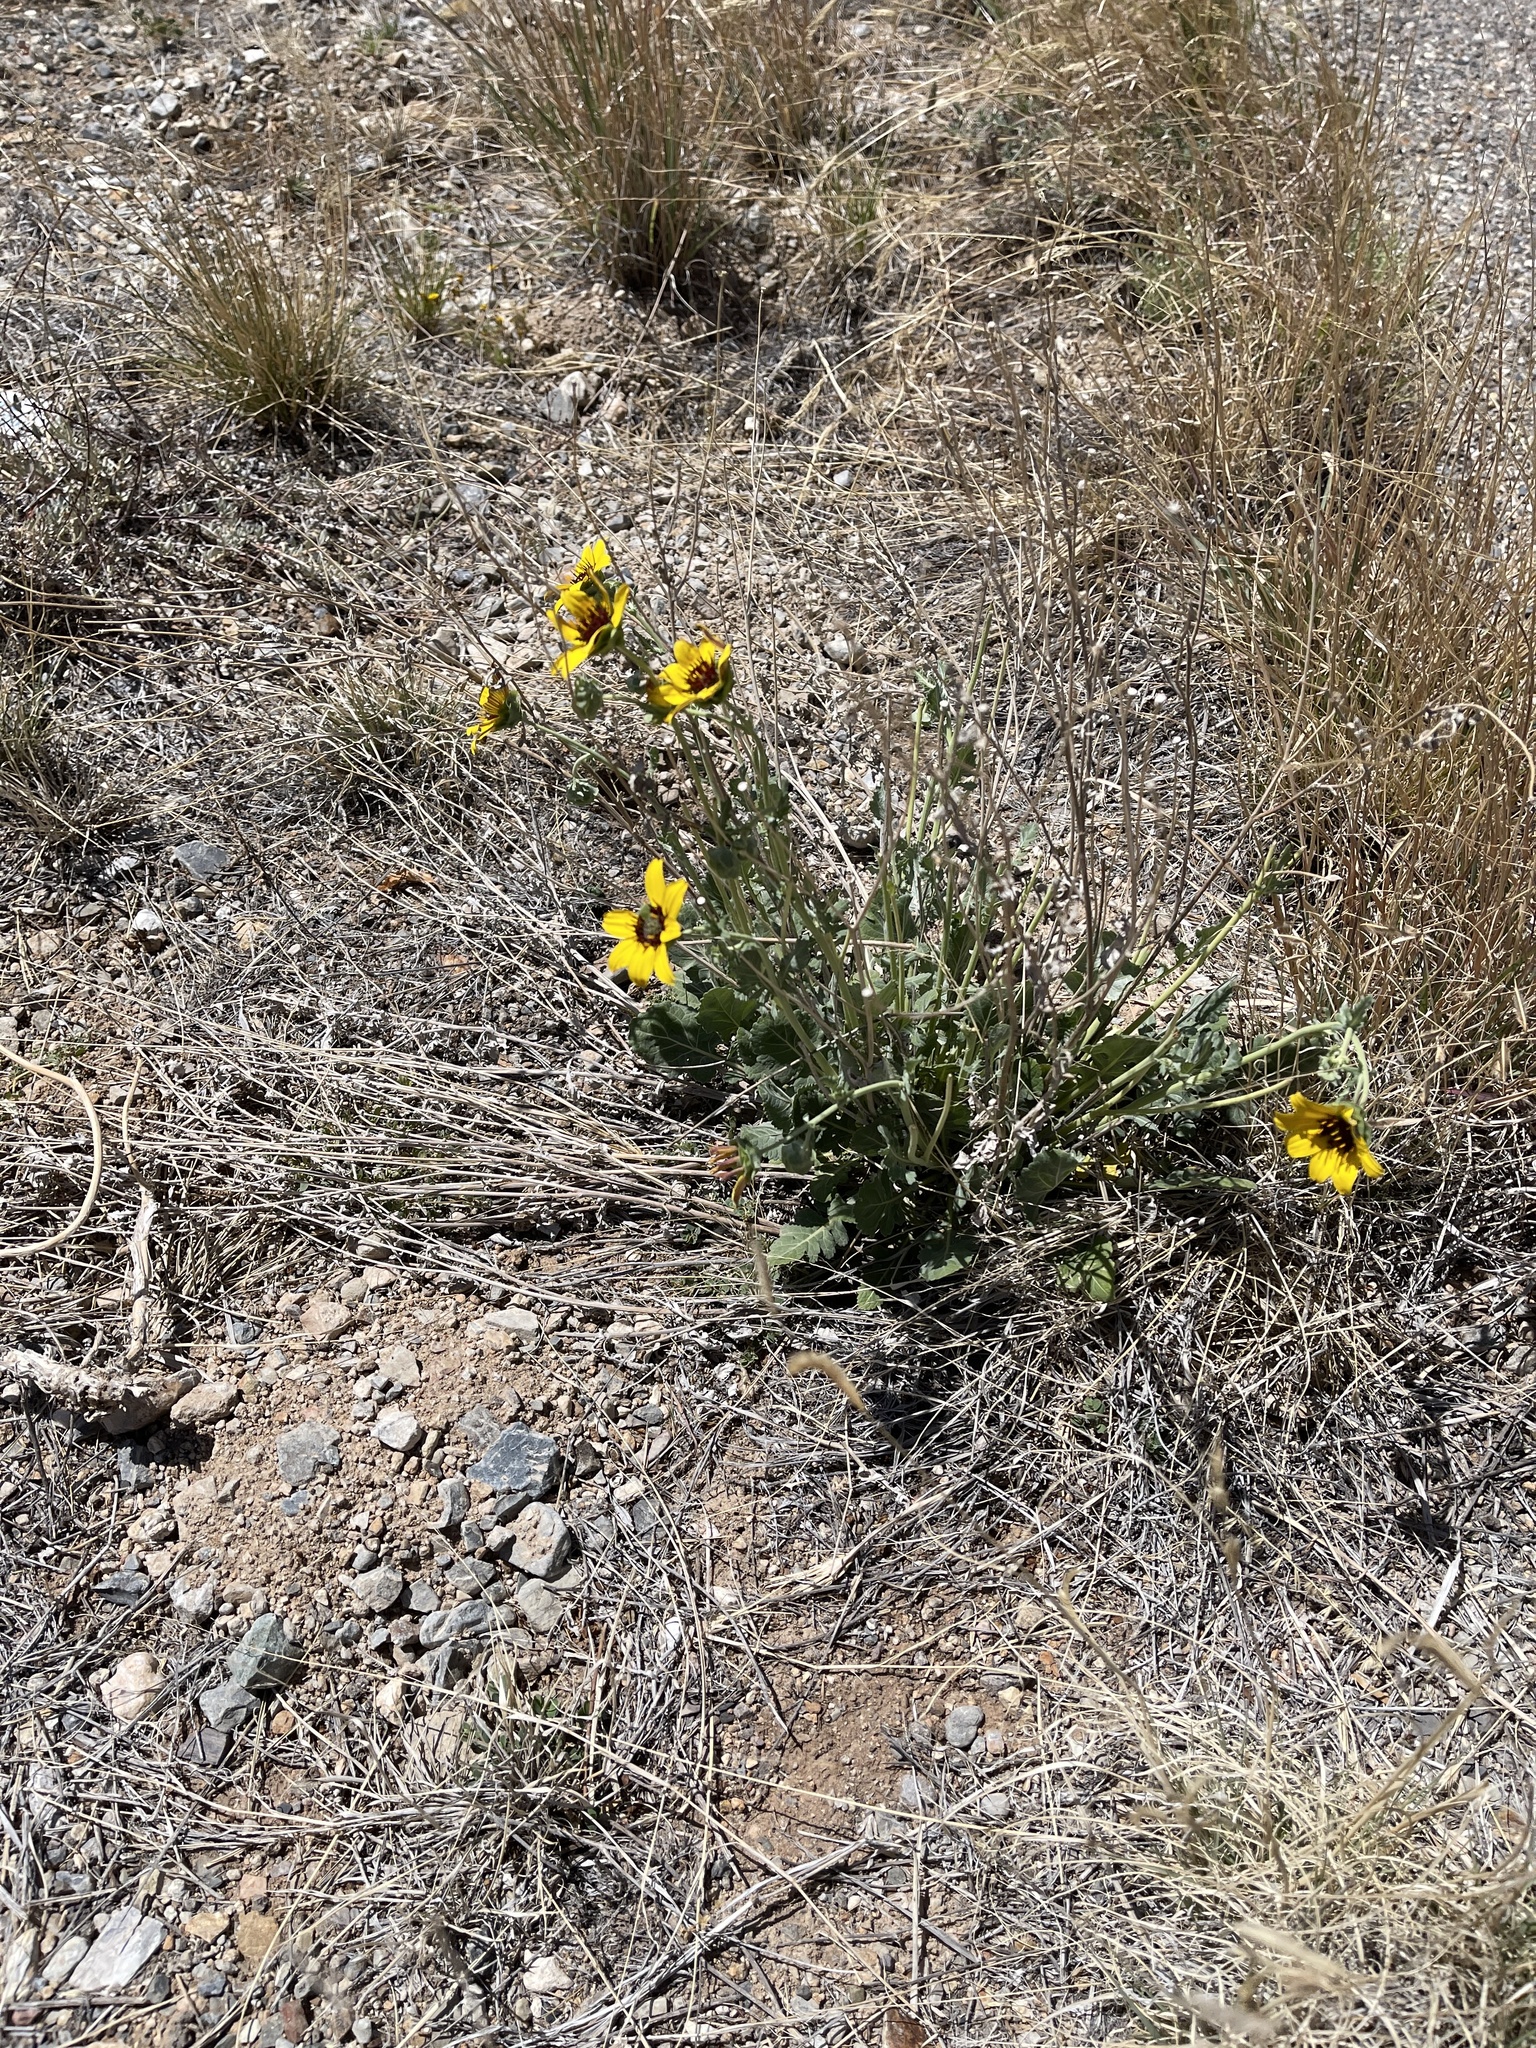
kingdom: Plantae
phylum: Tracheophyta
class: Magnoliopsida
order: Asterales
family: Asteraceae
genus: Berlandiera
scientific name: Berlandiera lyrata
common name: Chocolate-flower
